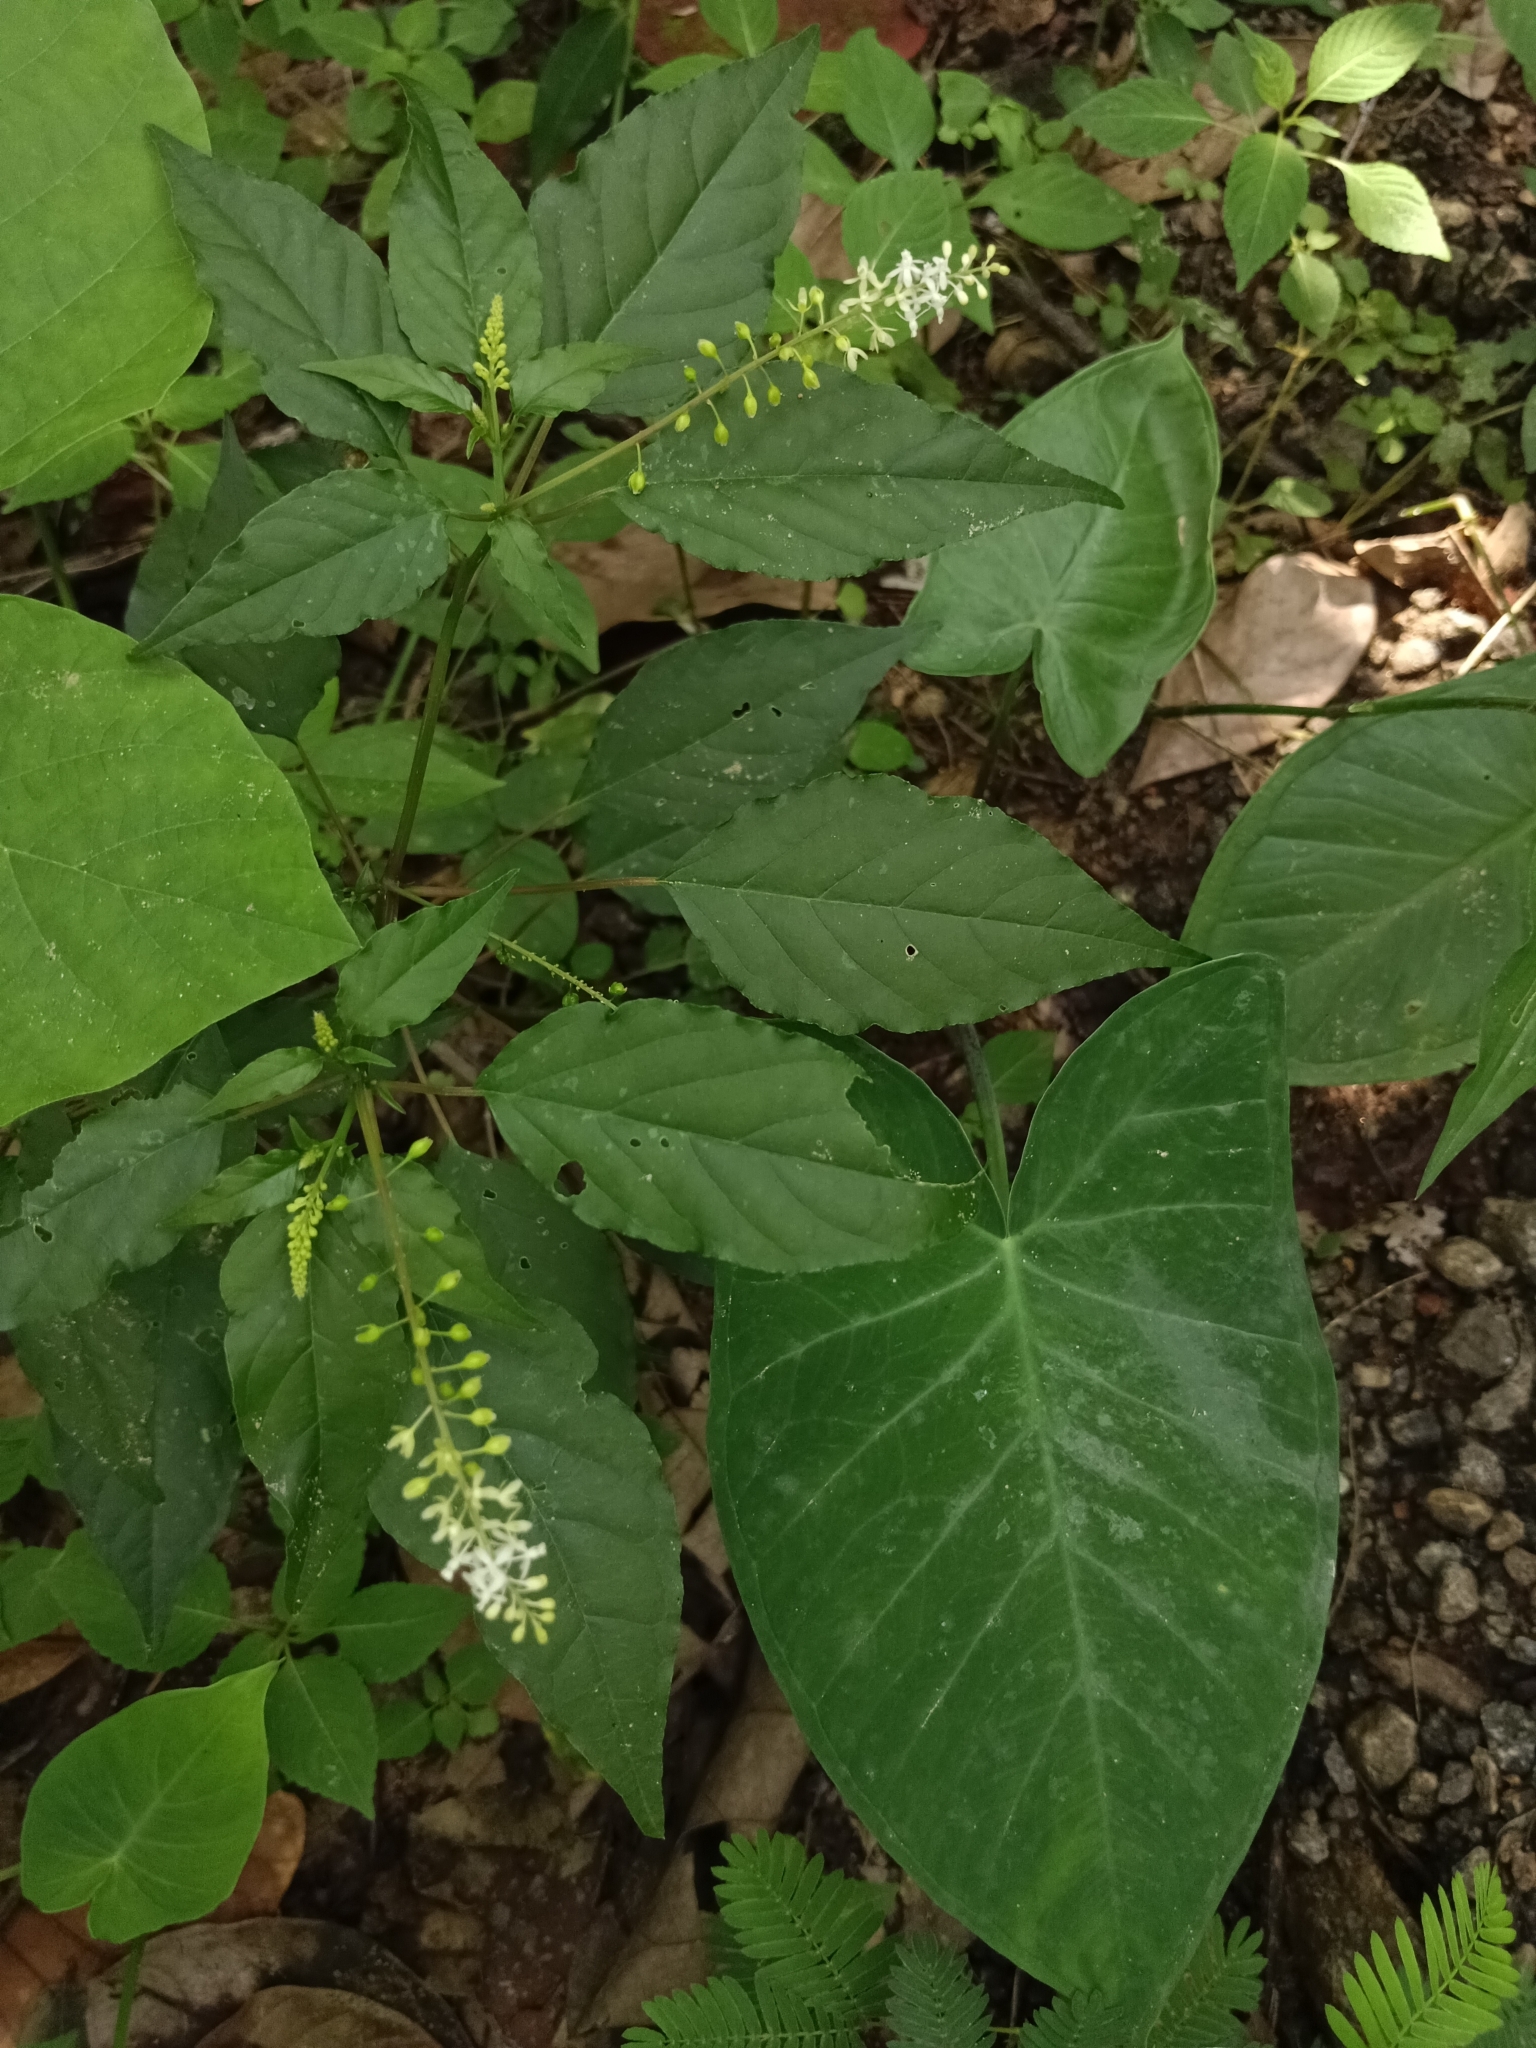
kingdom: Plantae
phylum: Tracheophyta
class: Magnoliopsida
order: Caryophyllales
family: Phytolaccaceae
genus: Rivina
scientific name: Rivina humilis
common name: Rougeplant
